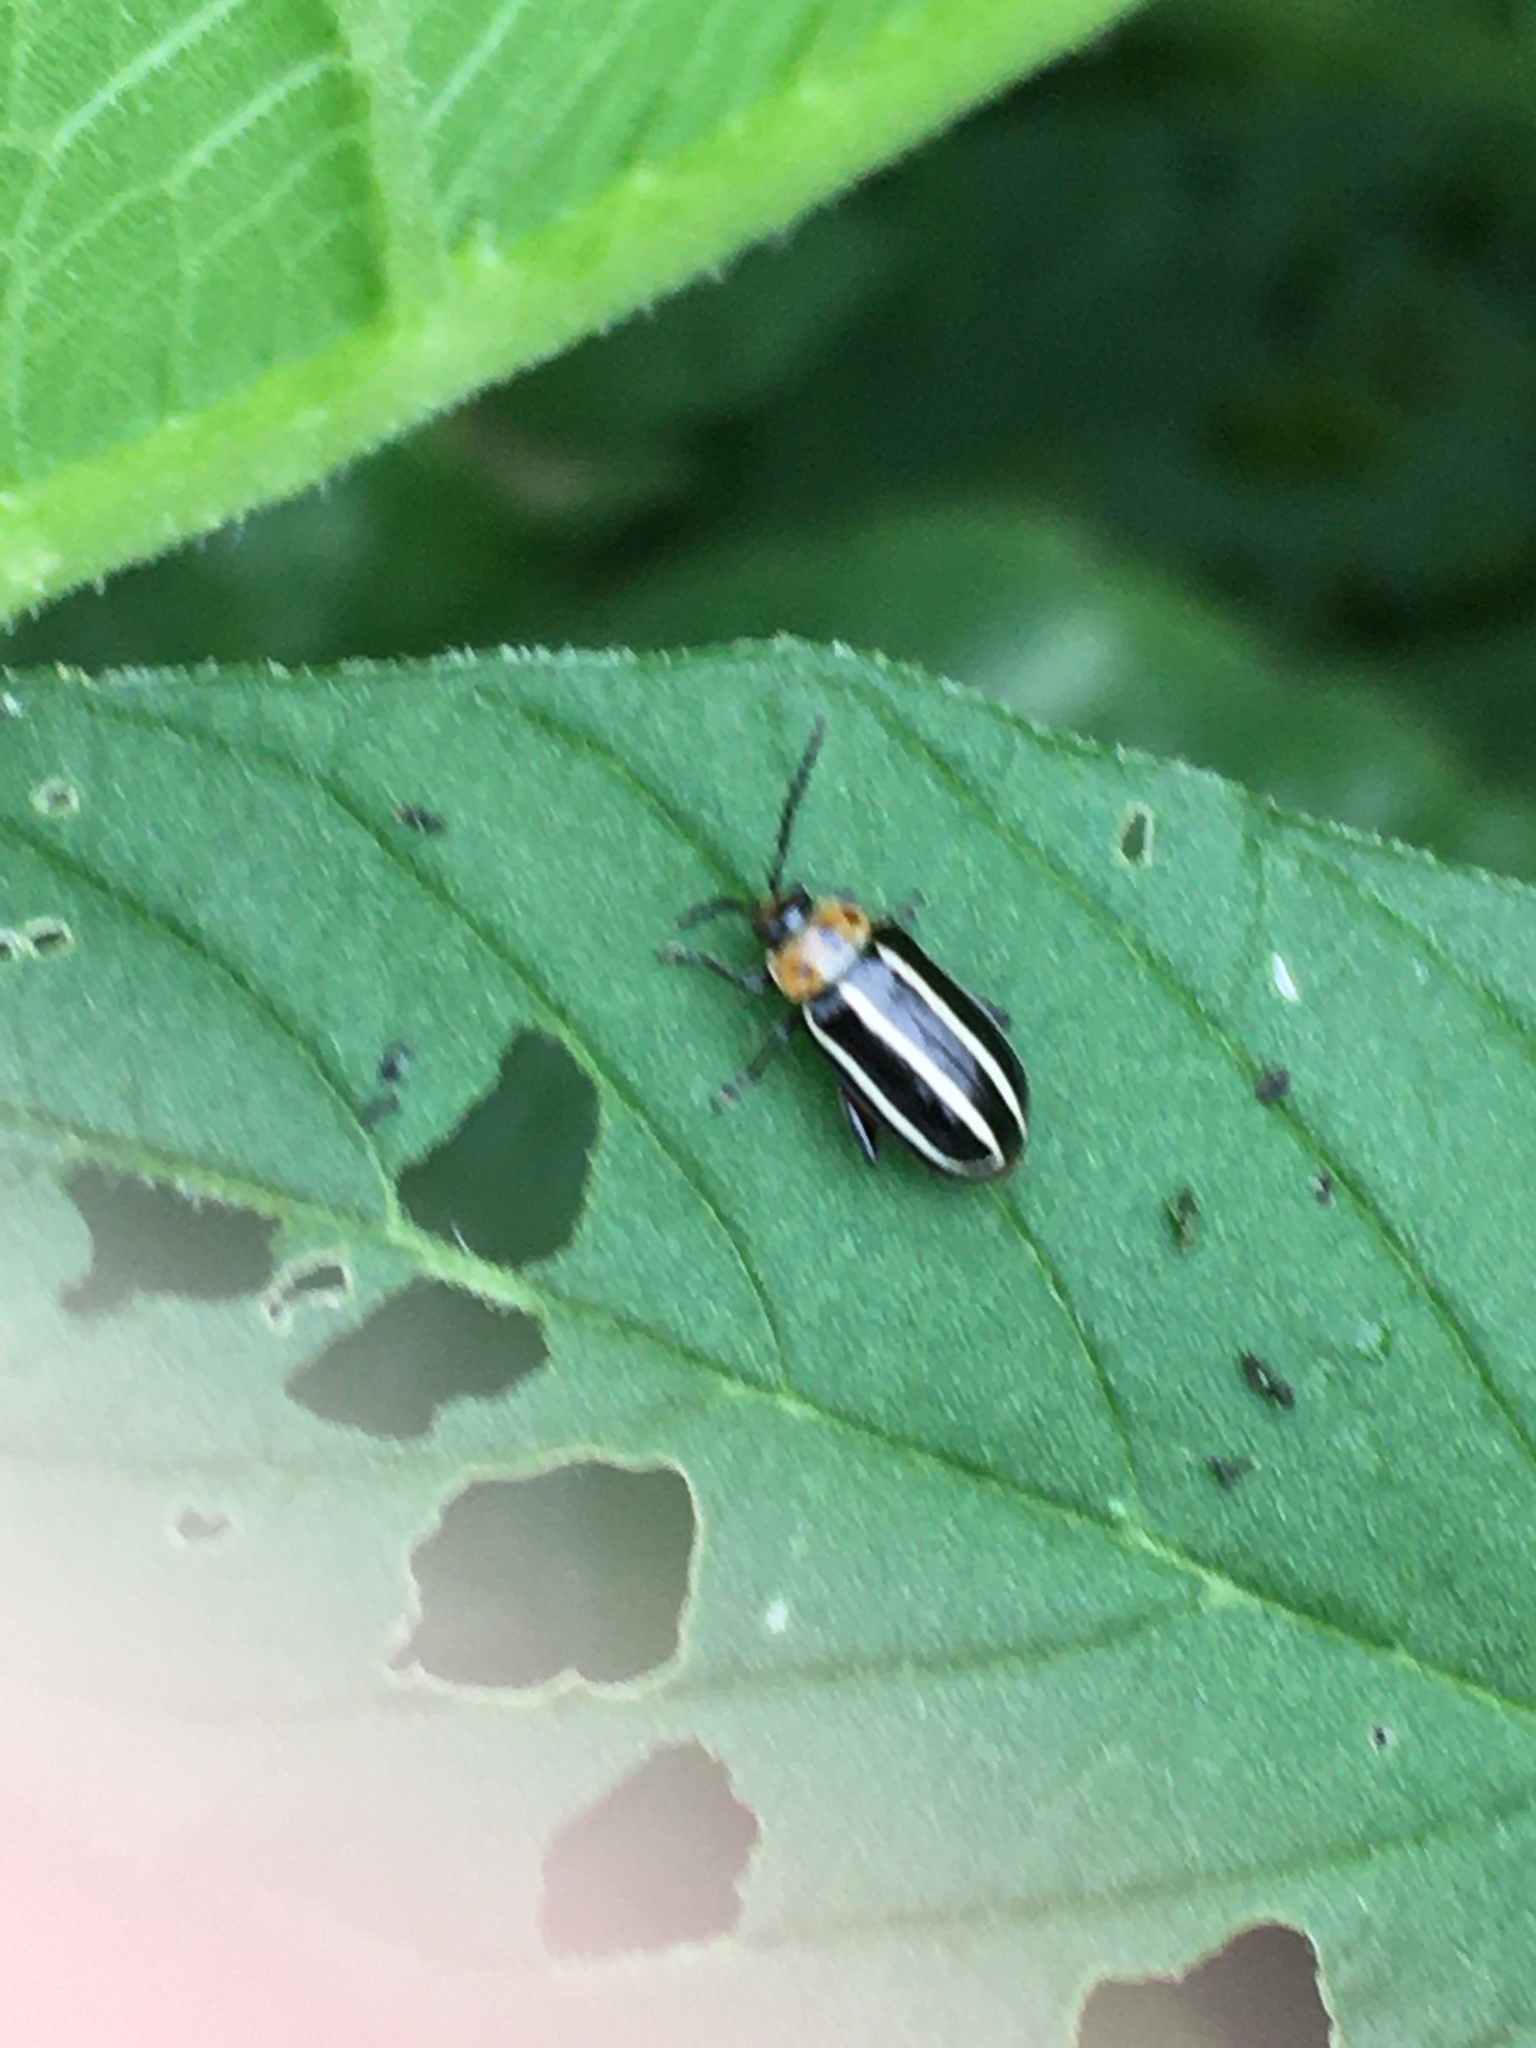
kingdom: Animalia
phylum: Arthropoda
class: Insecta
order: Coleoptera
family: Chrysomelidae
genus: Disonycha
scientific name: Disonycha glabrata
